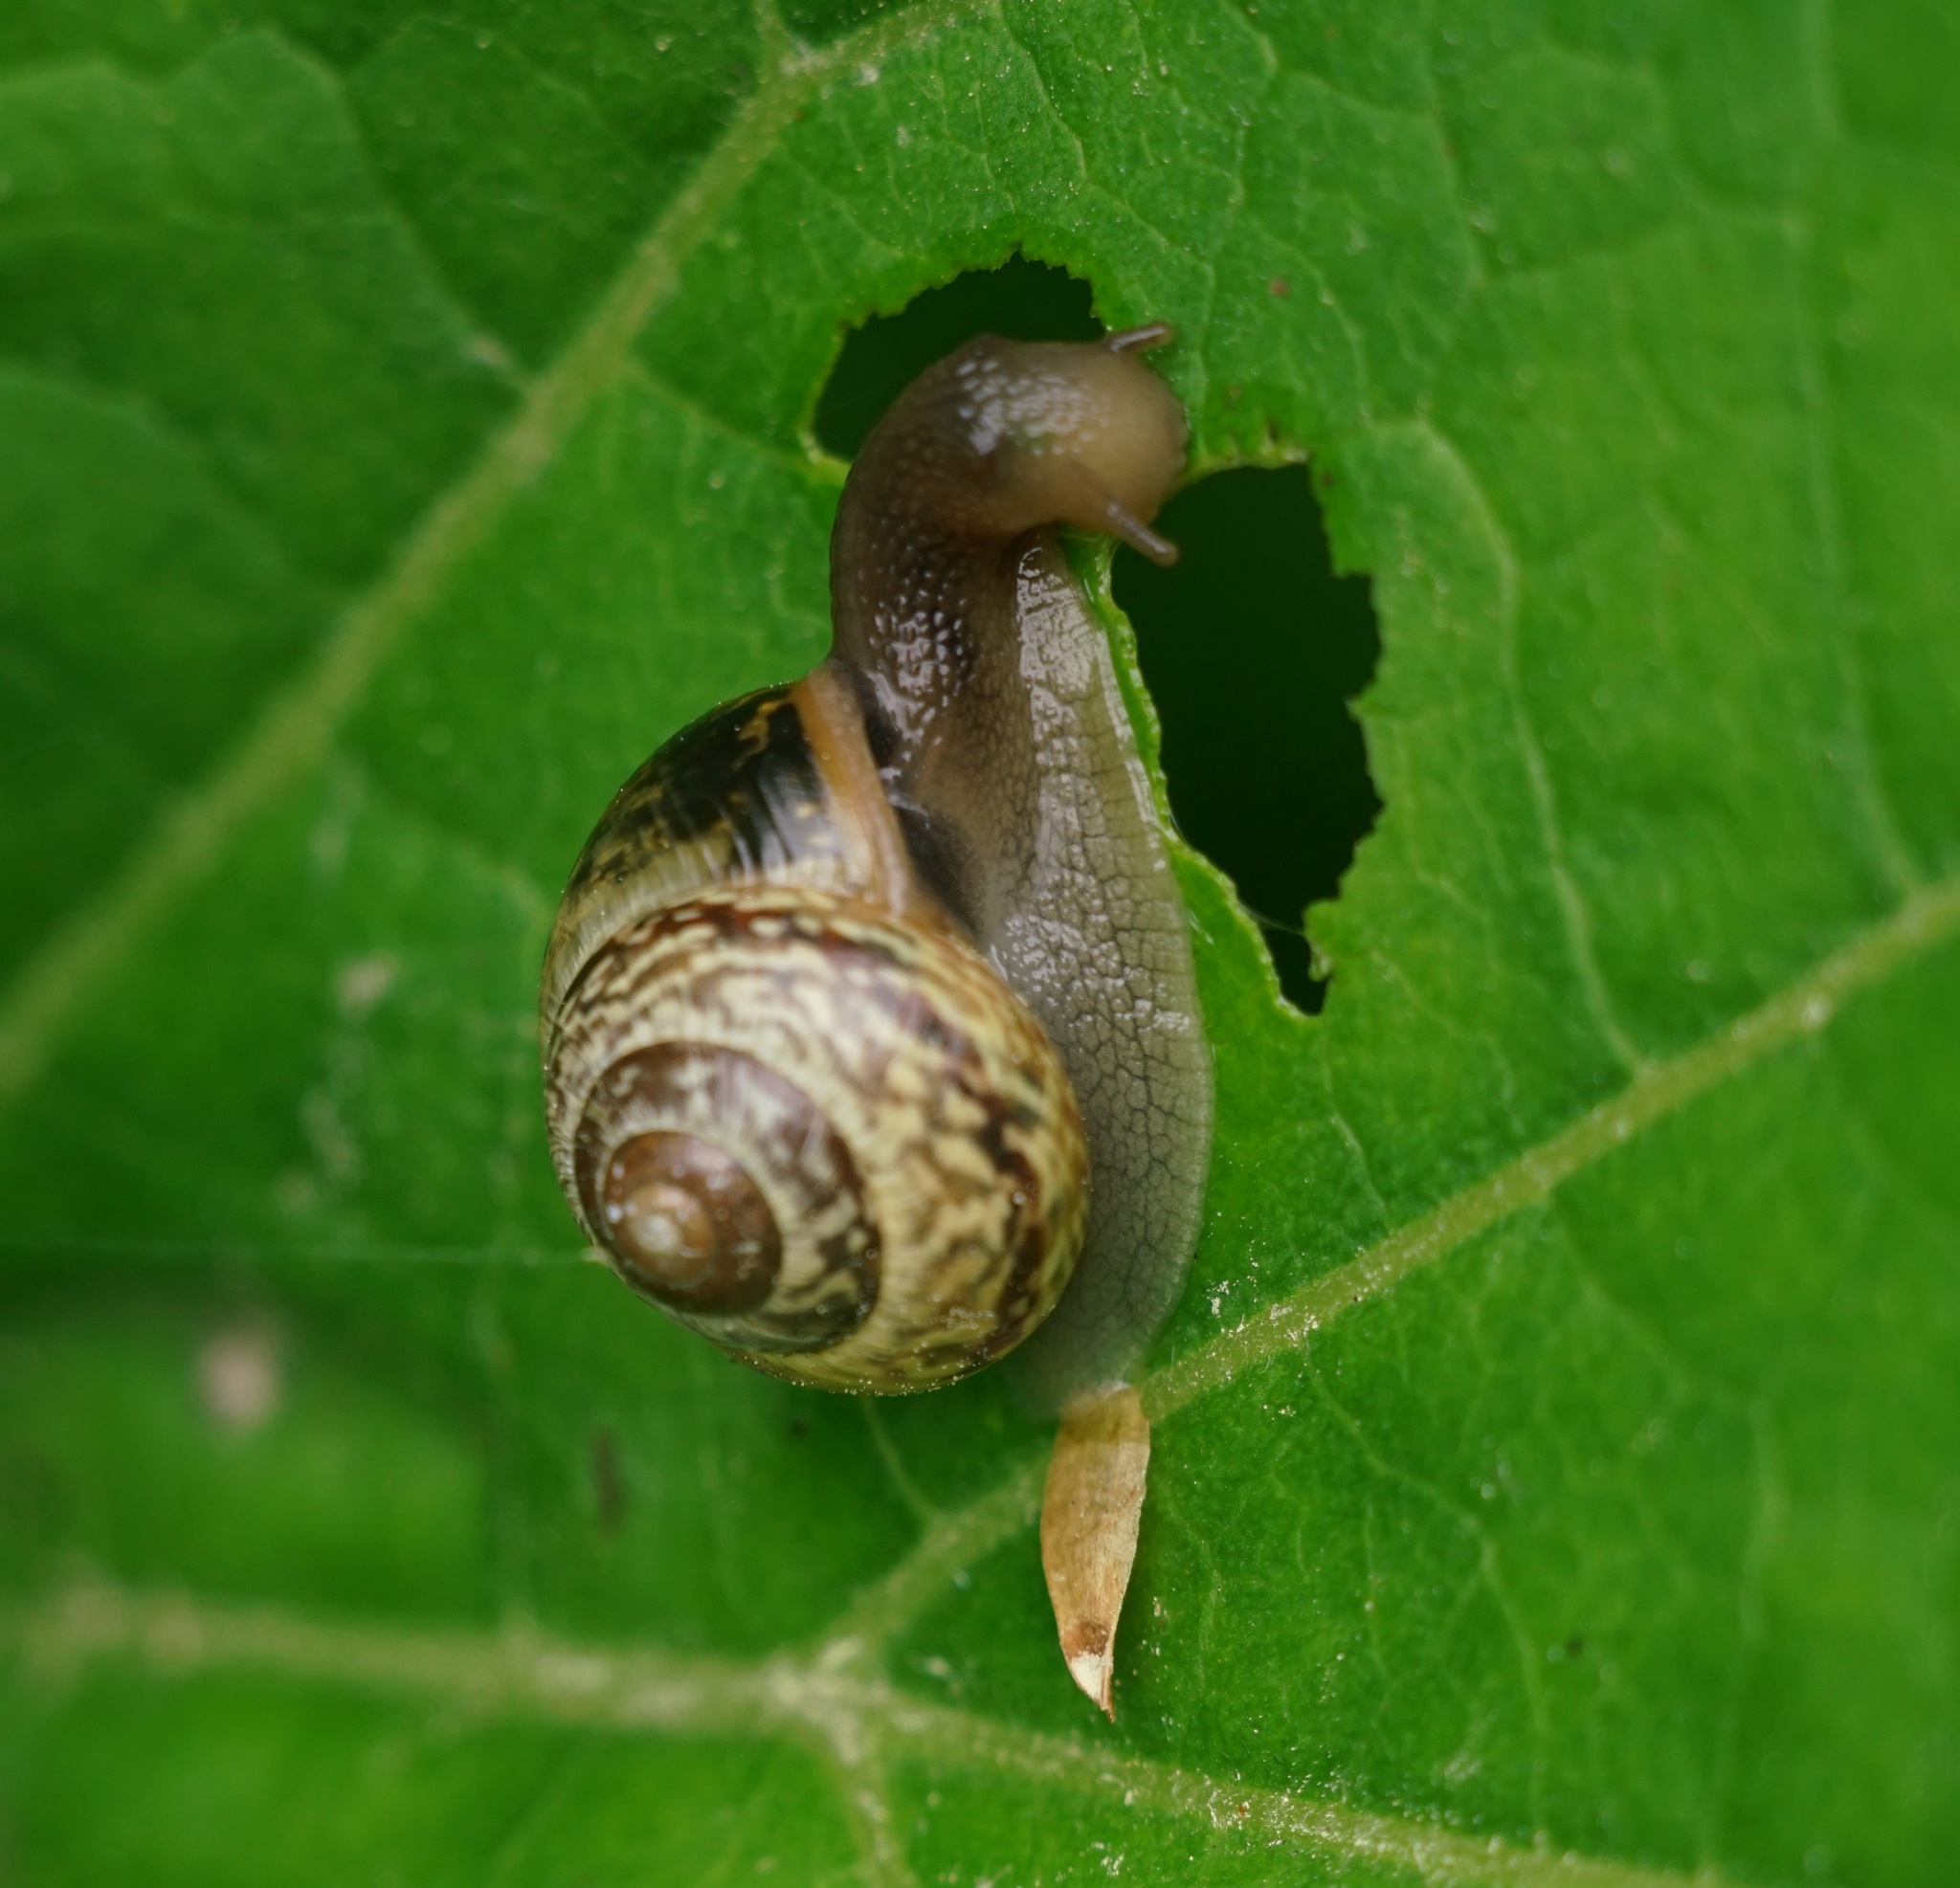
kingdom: Animalia
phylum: Mollusca
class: Gastropoda
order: Stylommatophora
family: Helicidae
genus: Arianta
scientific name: Arianta arbustorum
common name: Copse snail
